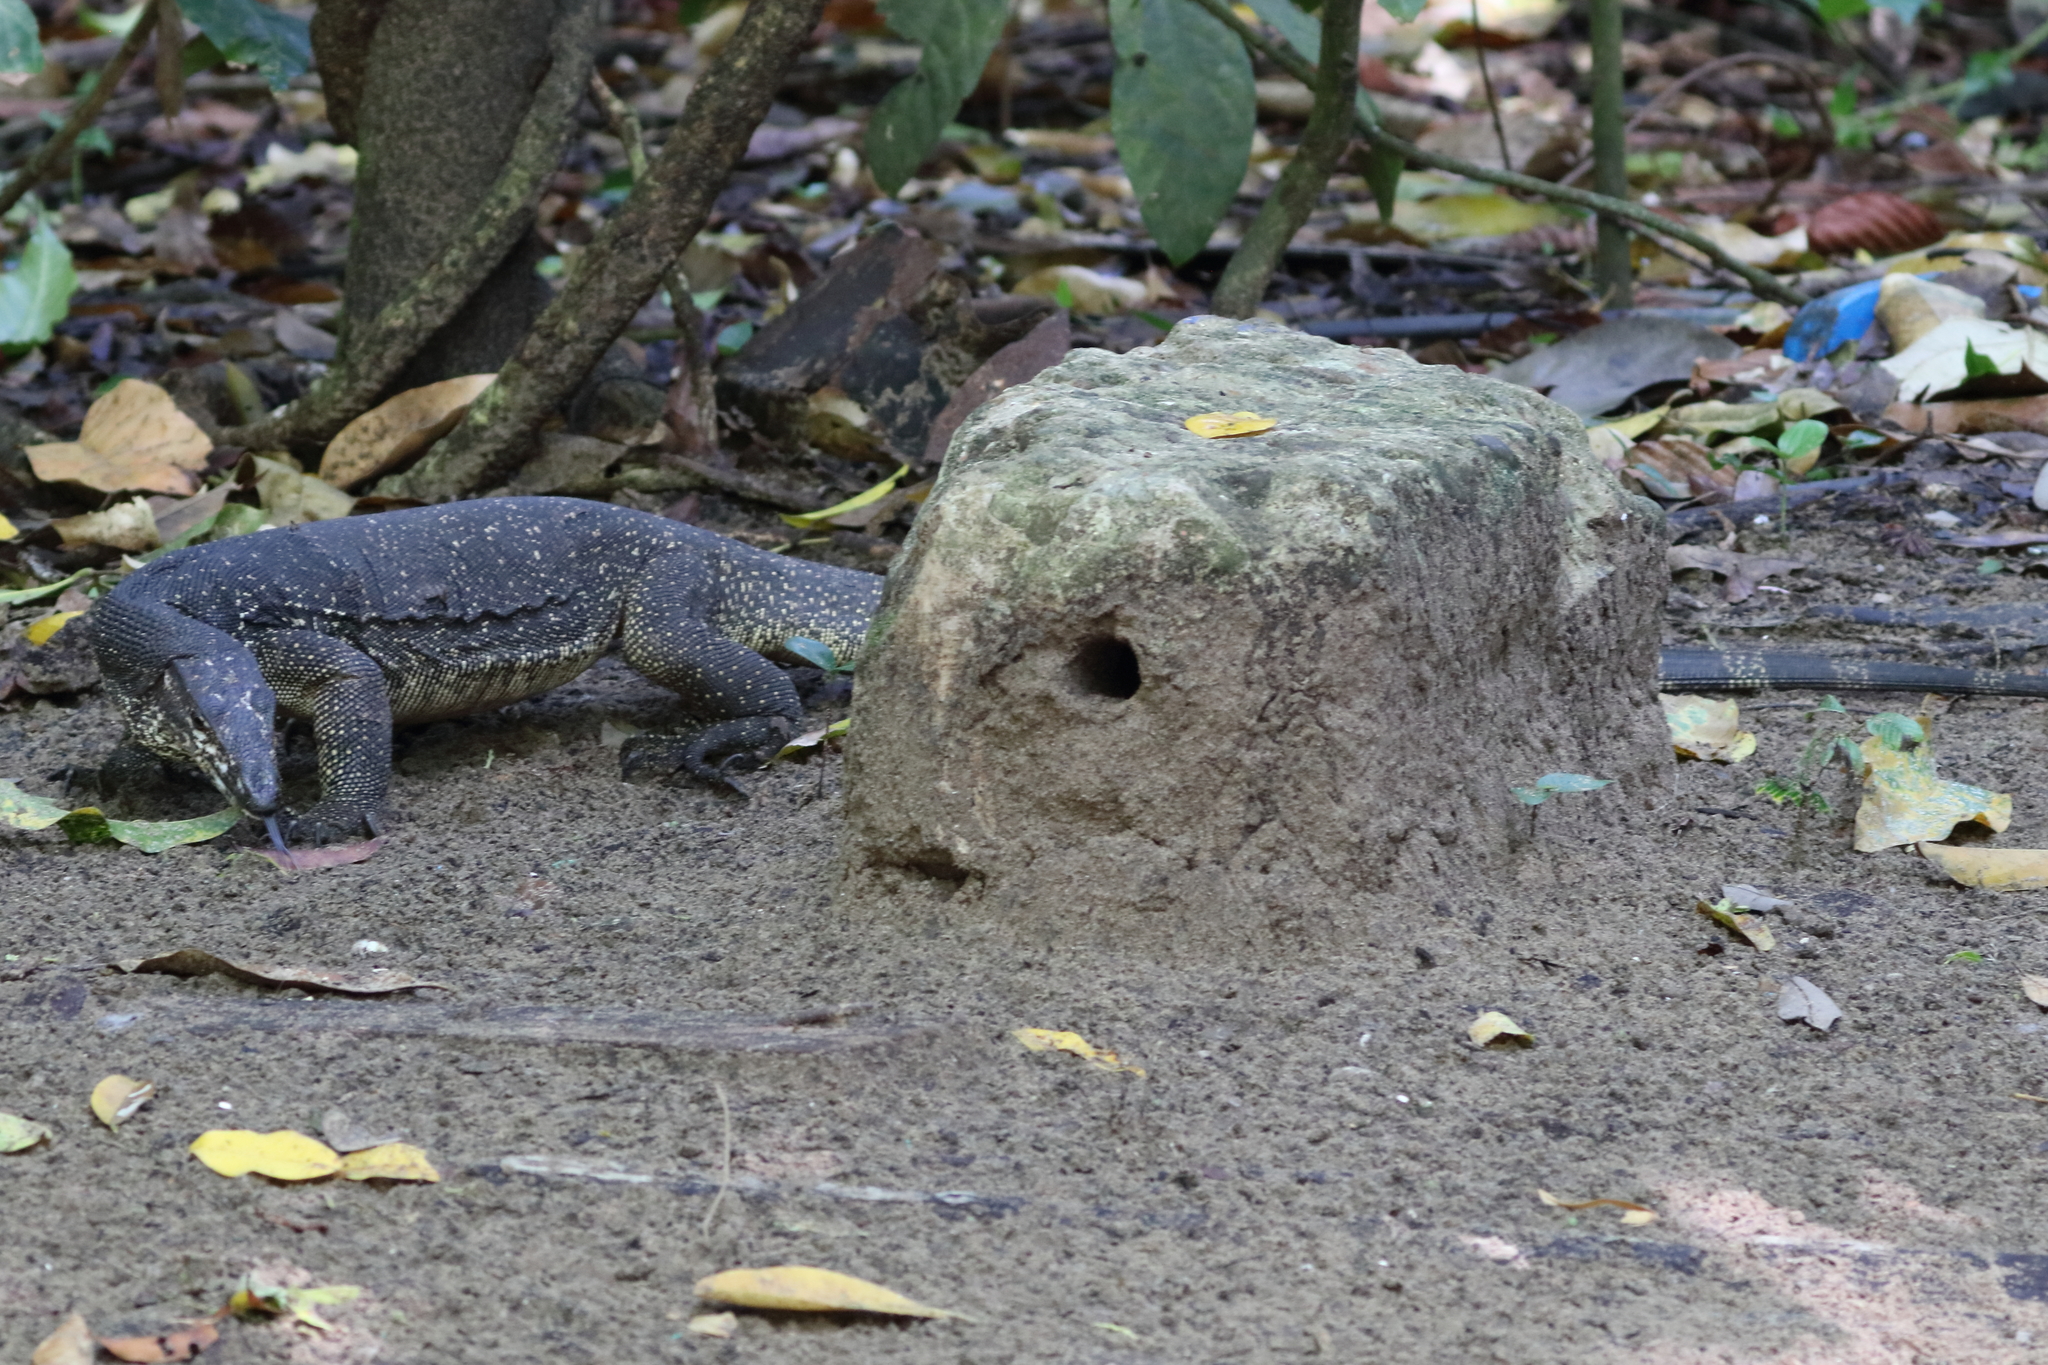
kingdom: Animalia
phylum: Chordata
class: Squamata
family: Varanidae
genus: Varanus
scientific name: Varanus palawanensis
